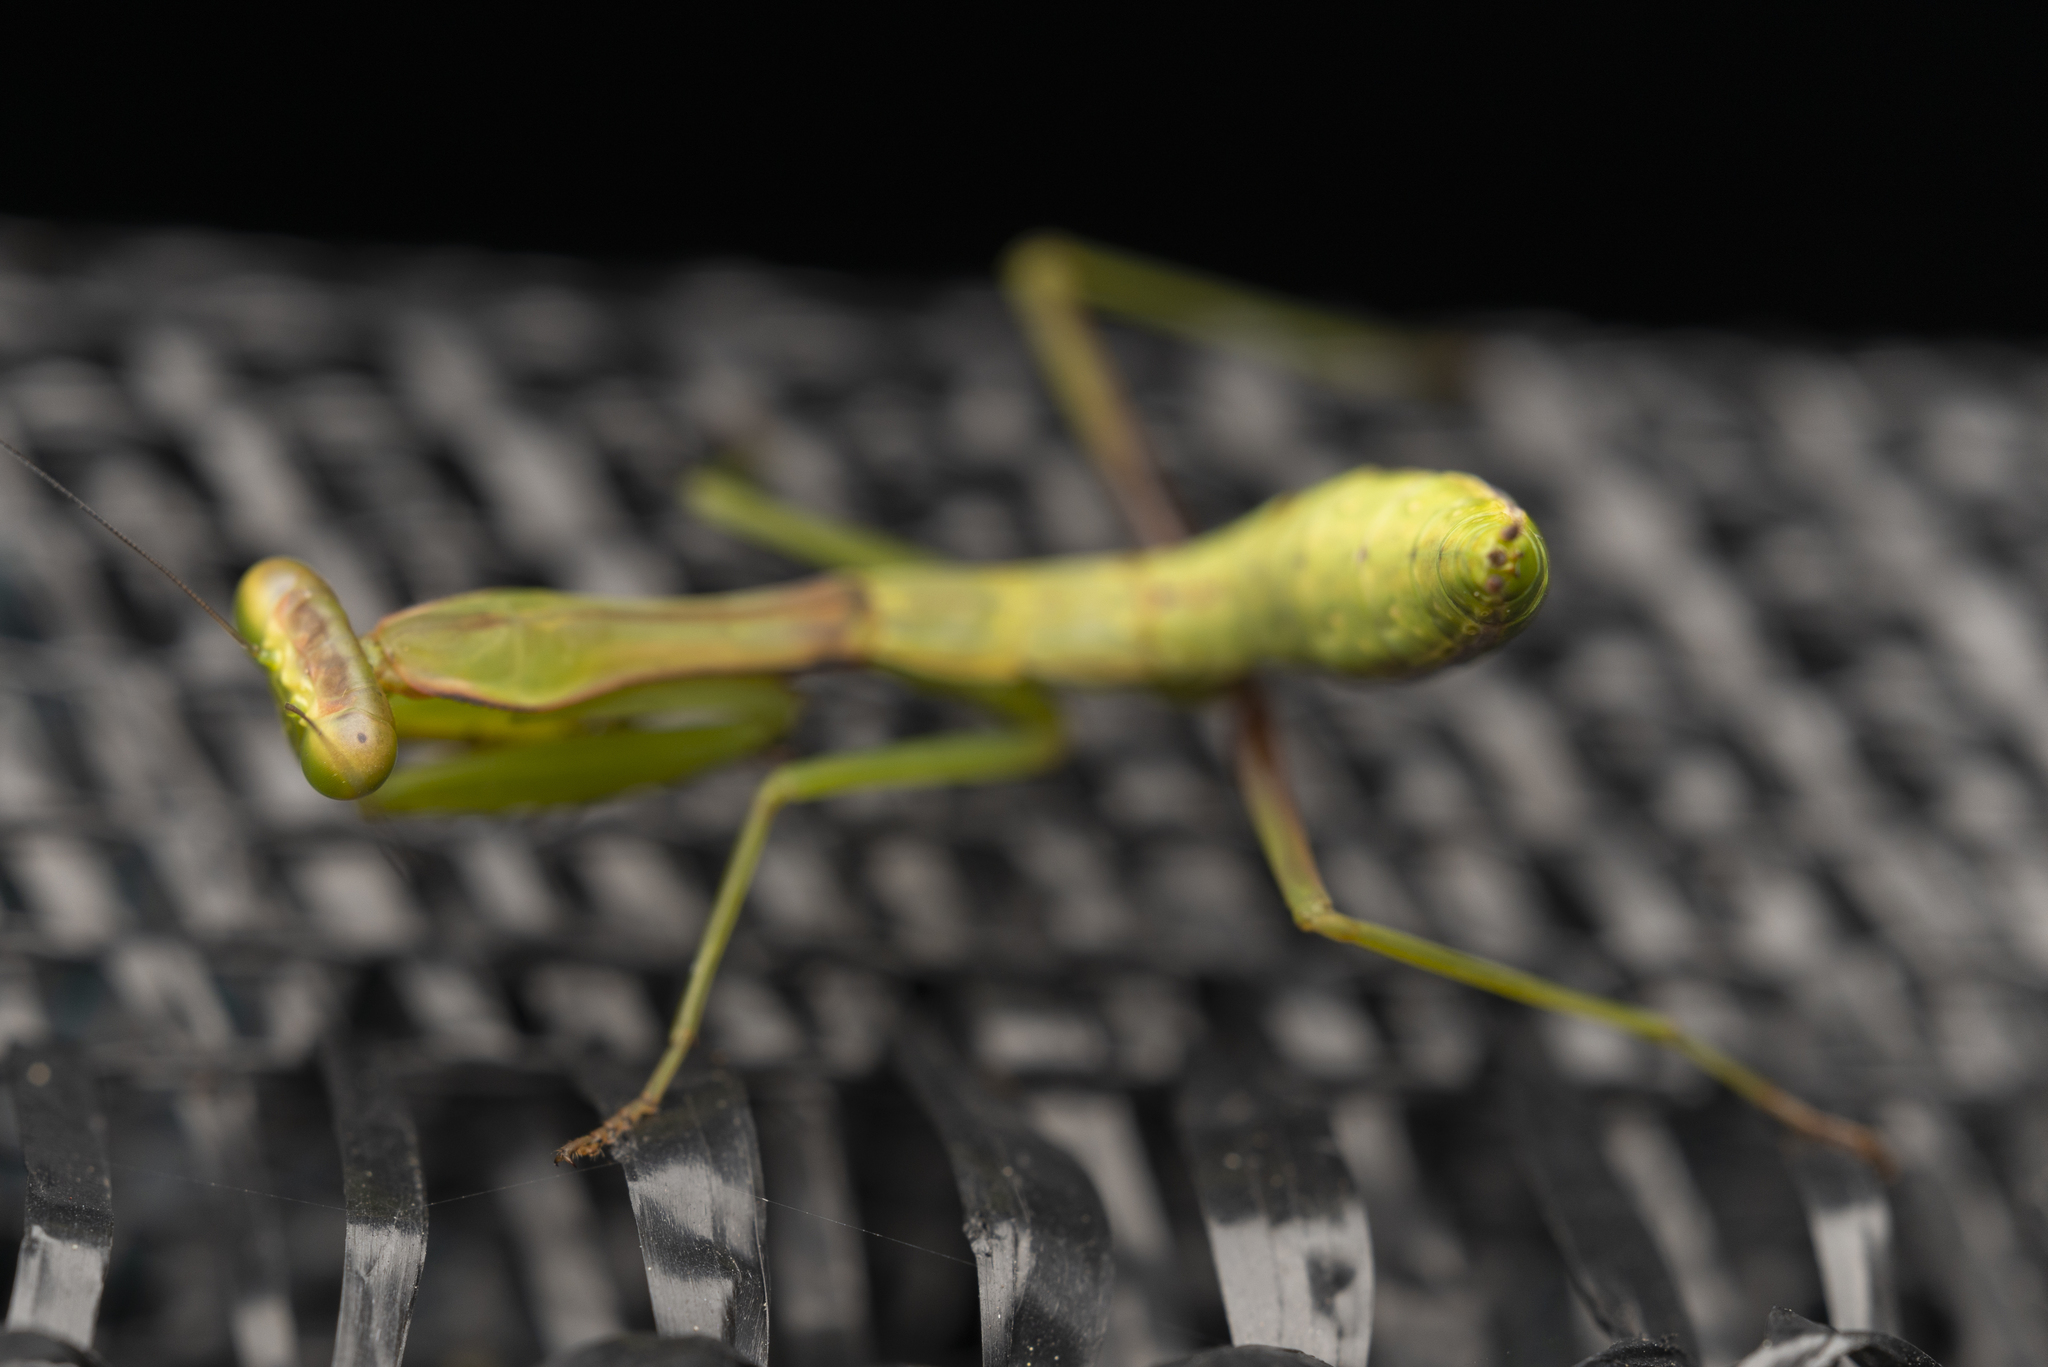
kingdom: Animalia
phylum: Arthropoda
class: Insecta
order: Mantodea
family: Mantidae
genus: Titanodula
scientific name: Titanodula formosana
